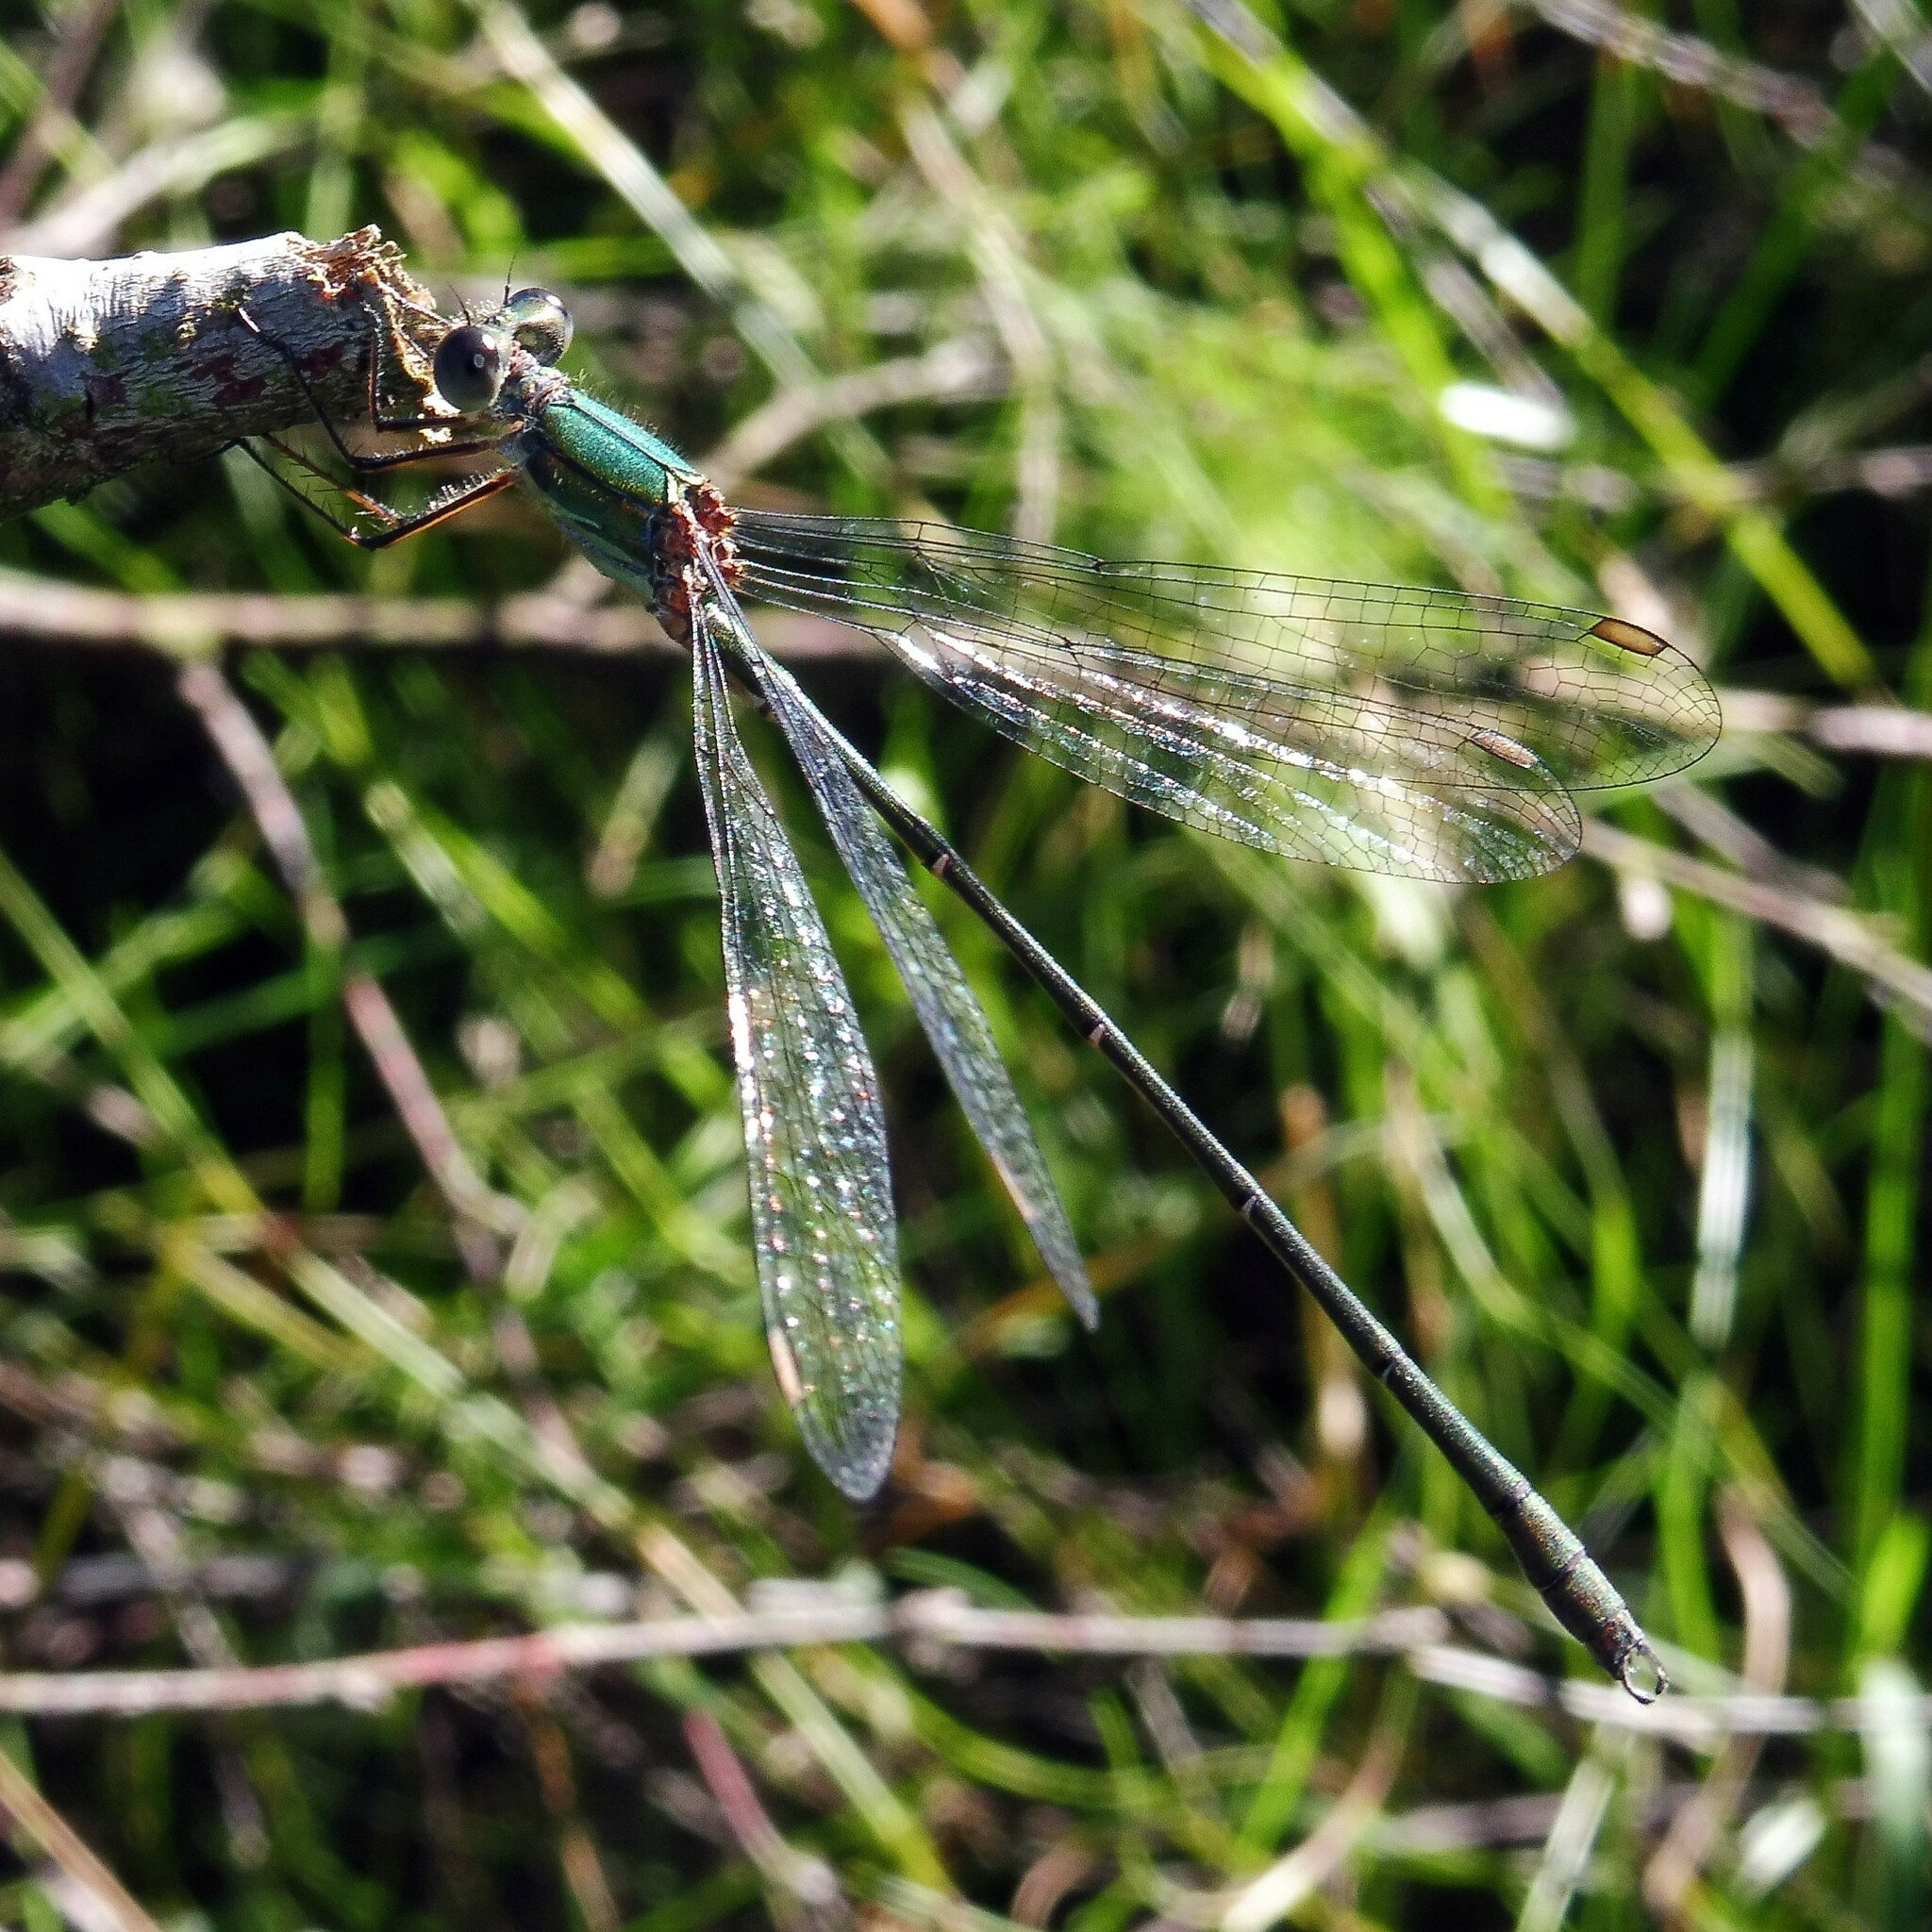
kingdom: Animalia
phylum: Arthropoda
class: Insecta
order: Odonata
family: Lestidae
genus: Chalcolestes
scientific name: Chalcolestes viridis
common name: Green emerald damselfly
